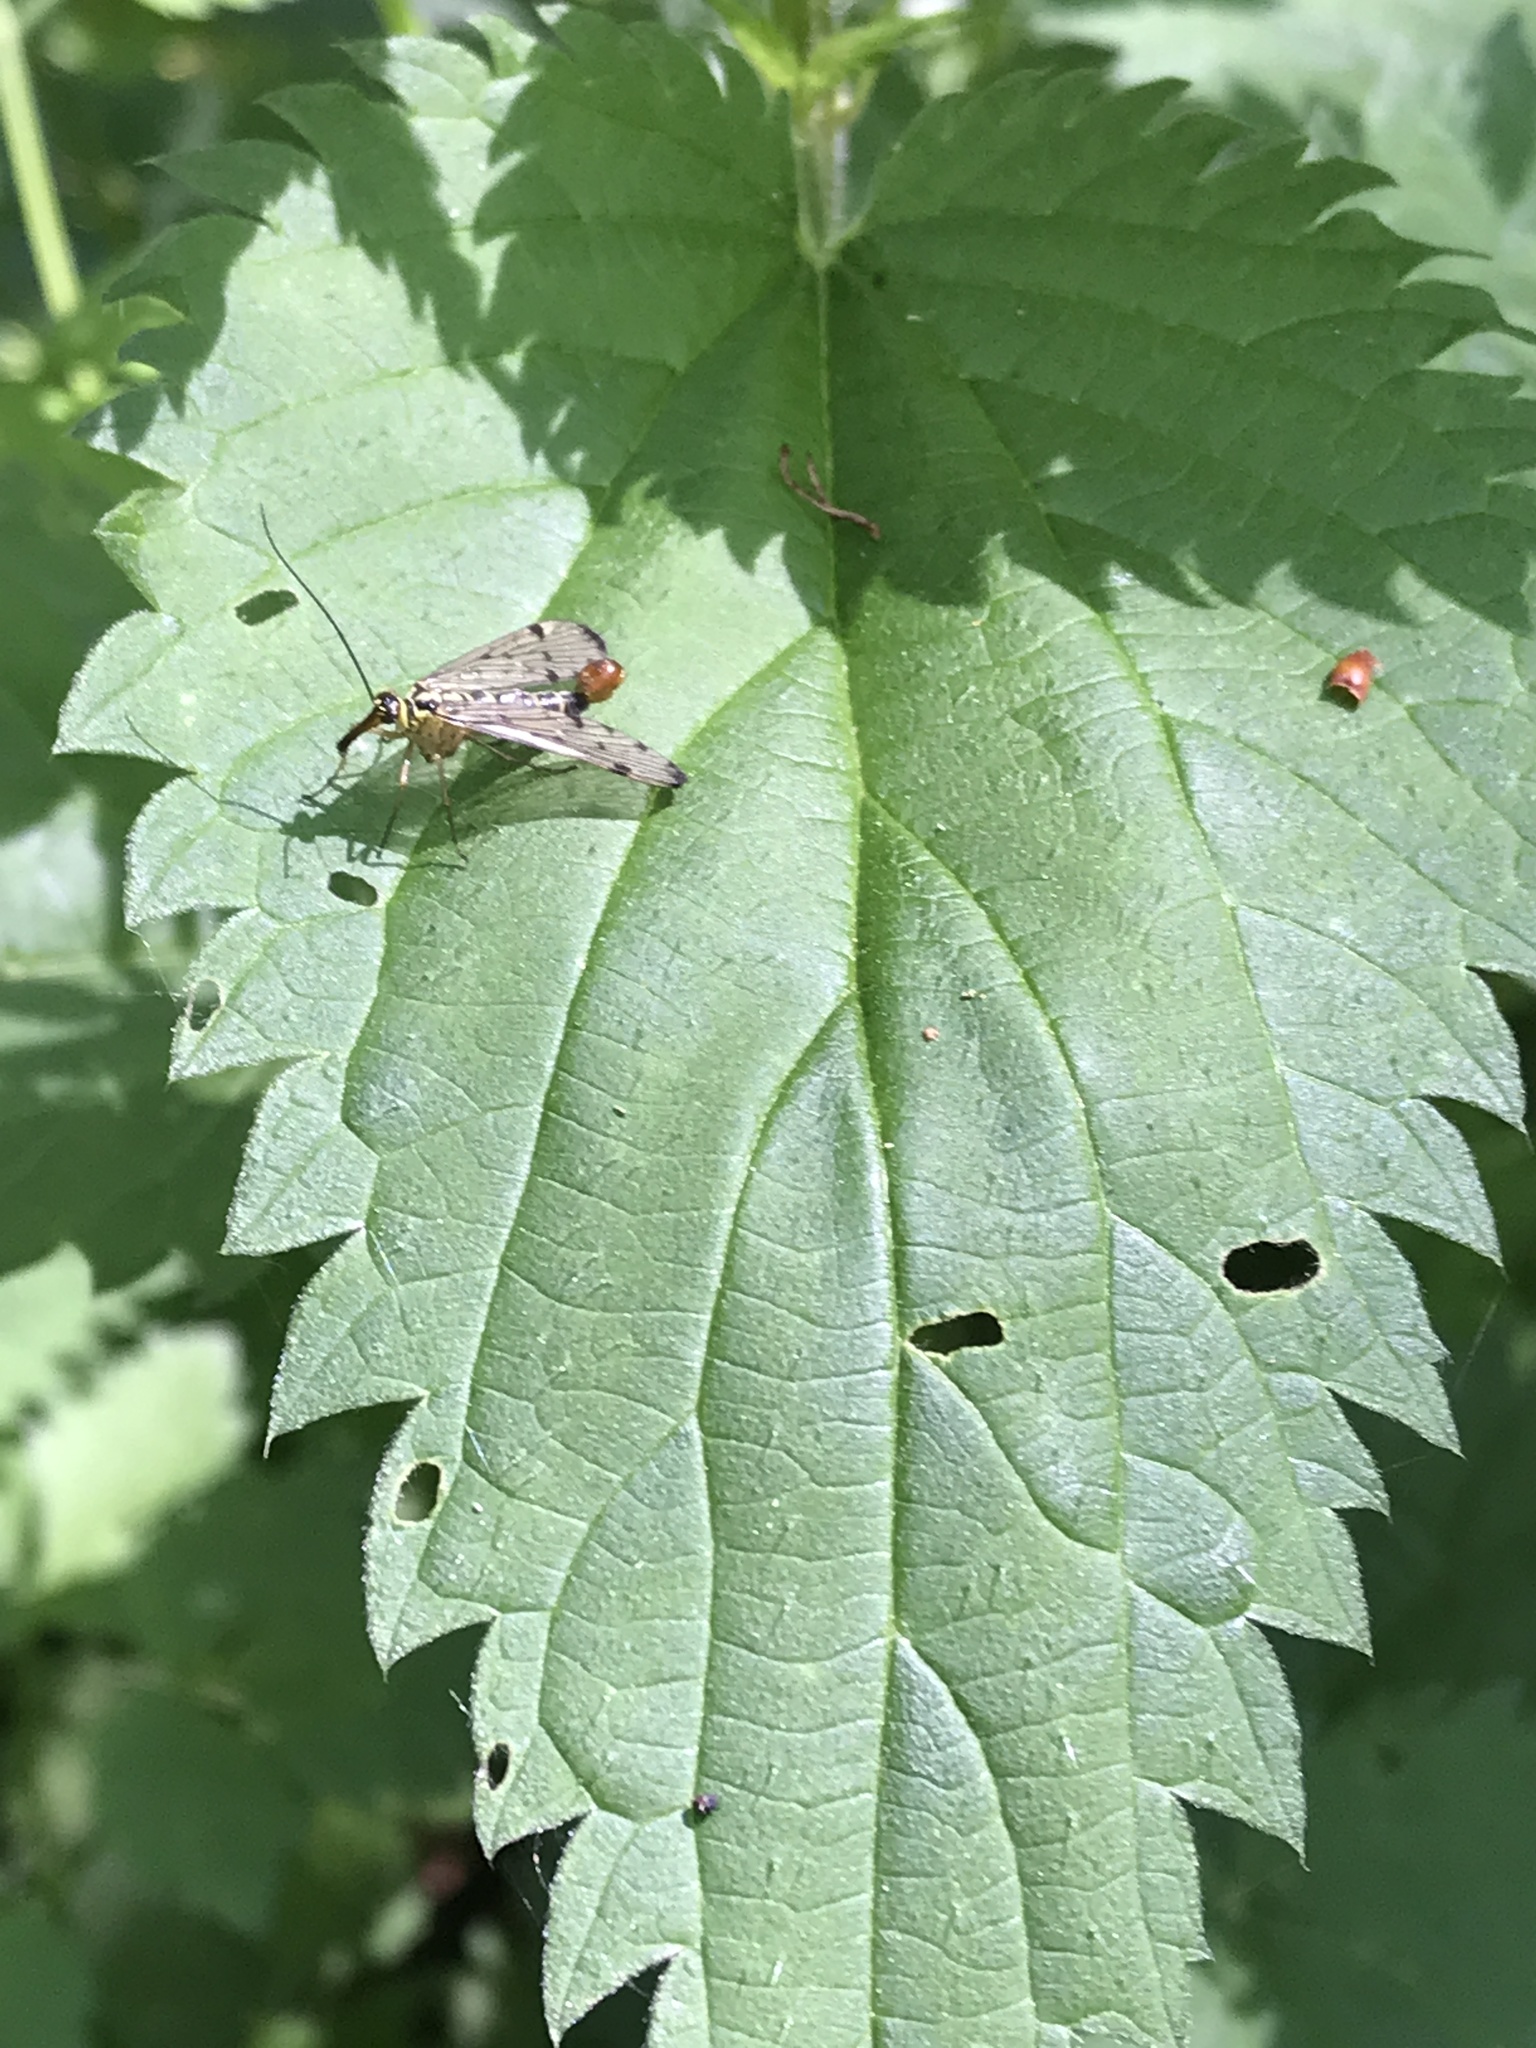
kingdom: Animalia
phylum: Arthropoda
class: Insecta
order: Mecoptera
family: Panorpidae
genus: Panorpa
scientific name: Panorpa germanica
